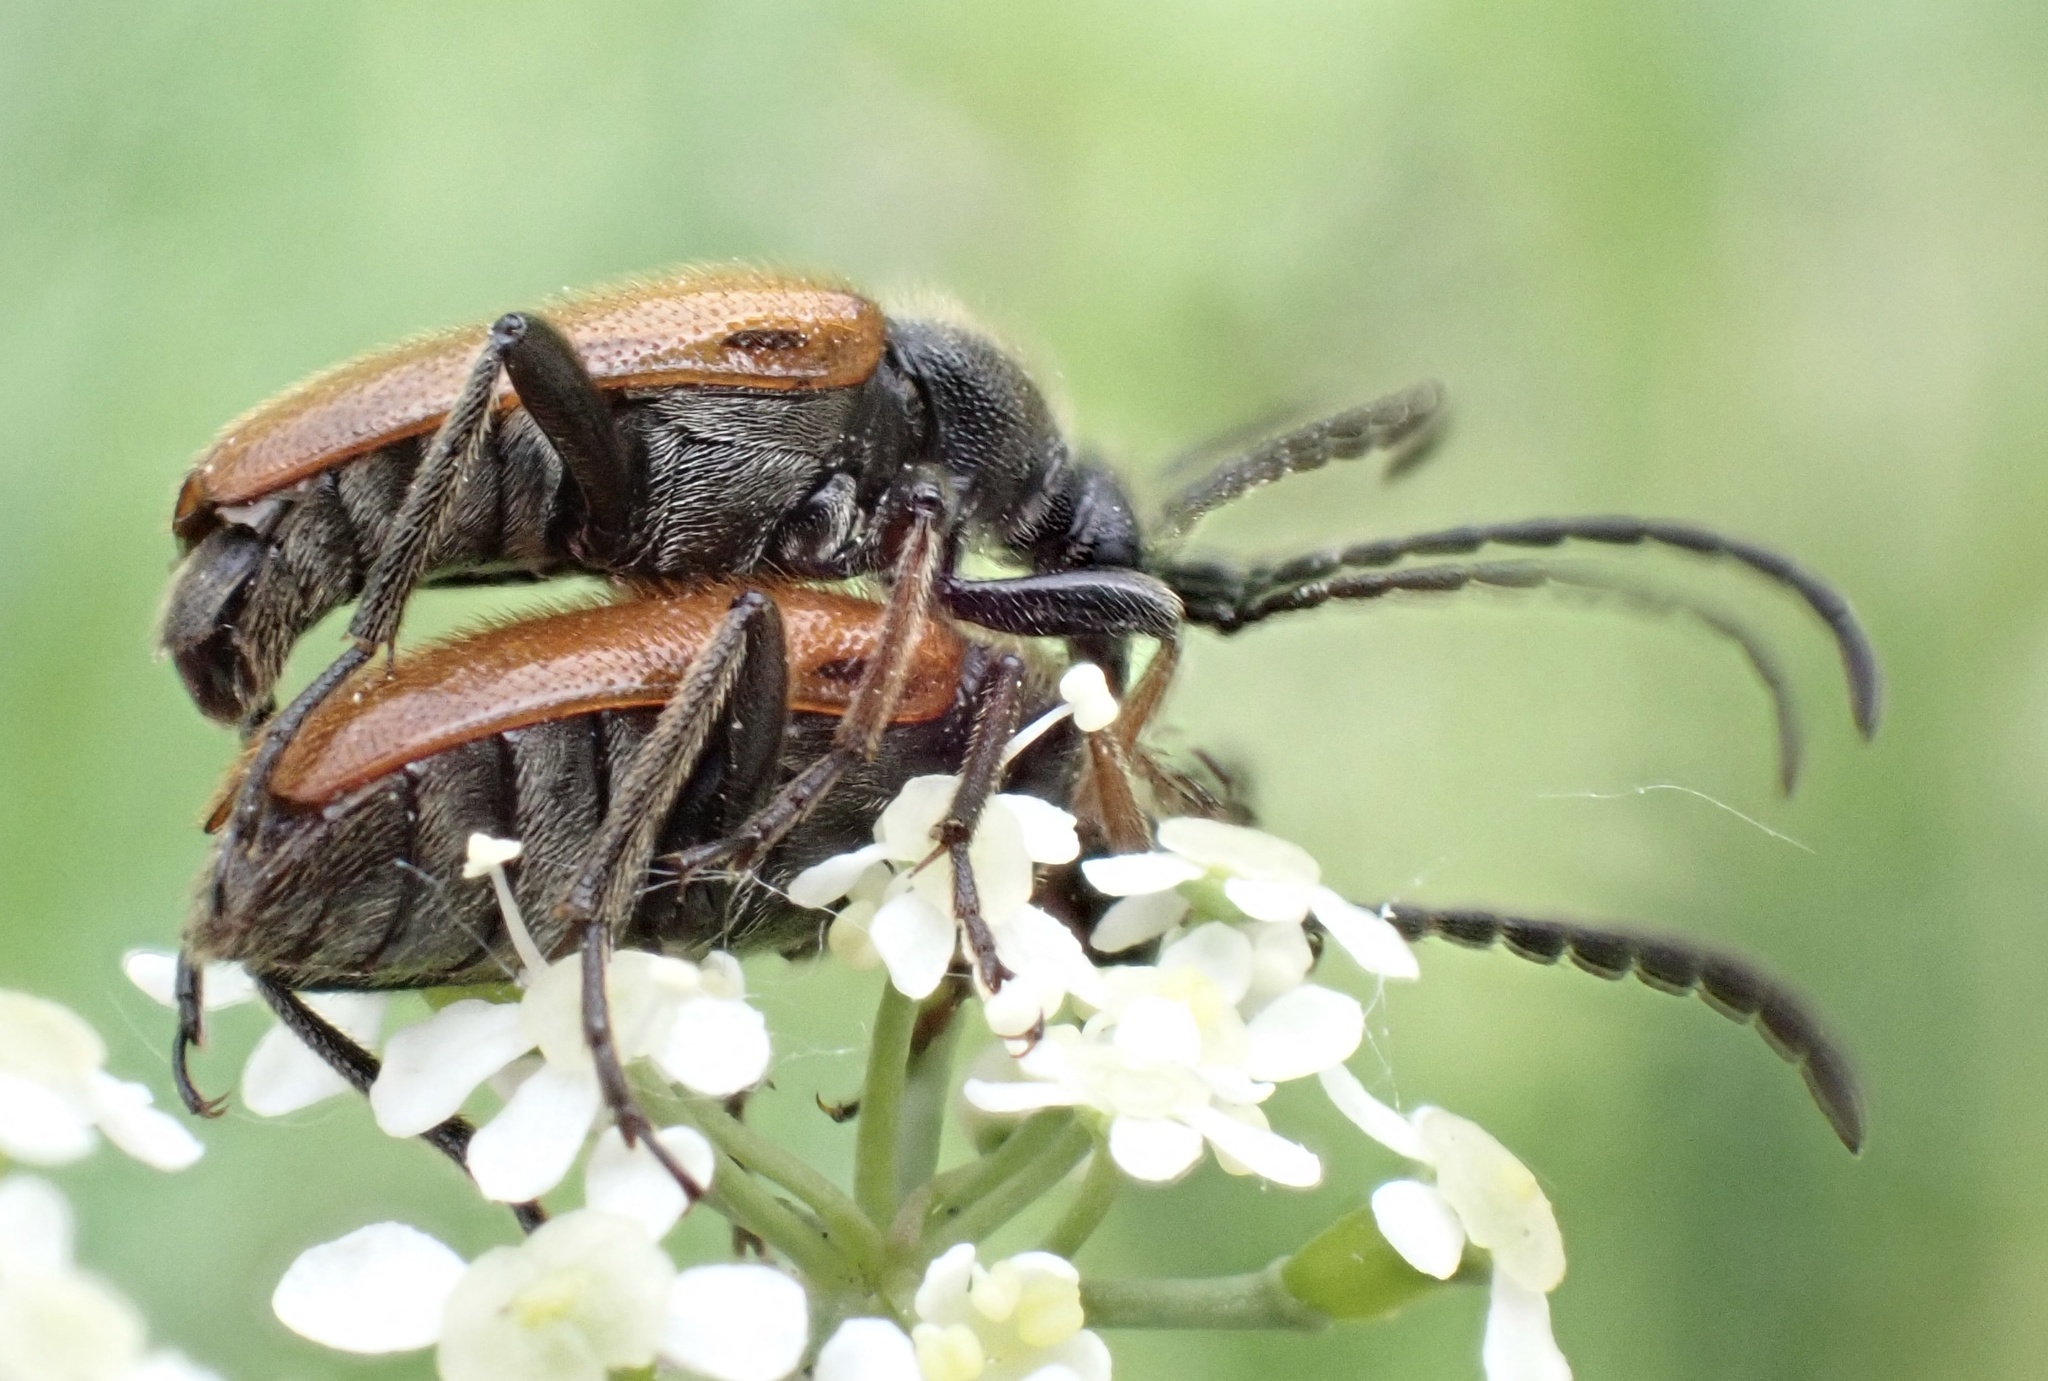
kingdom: Animalia
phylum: Arthropoda
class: Insecta
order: Coleoptera
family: Cerambycidae
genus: Pseudovadonia
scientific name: Pseudovadonia livida
